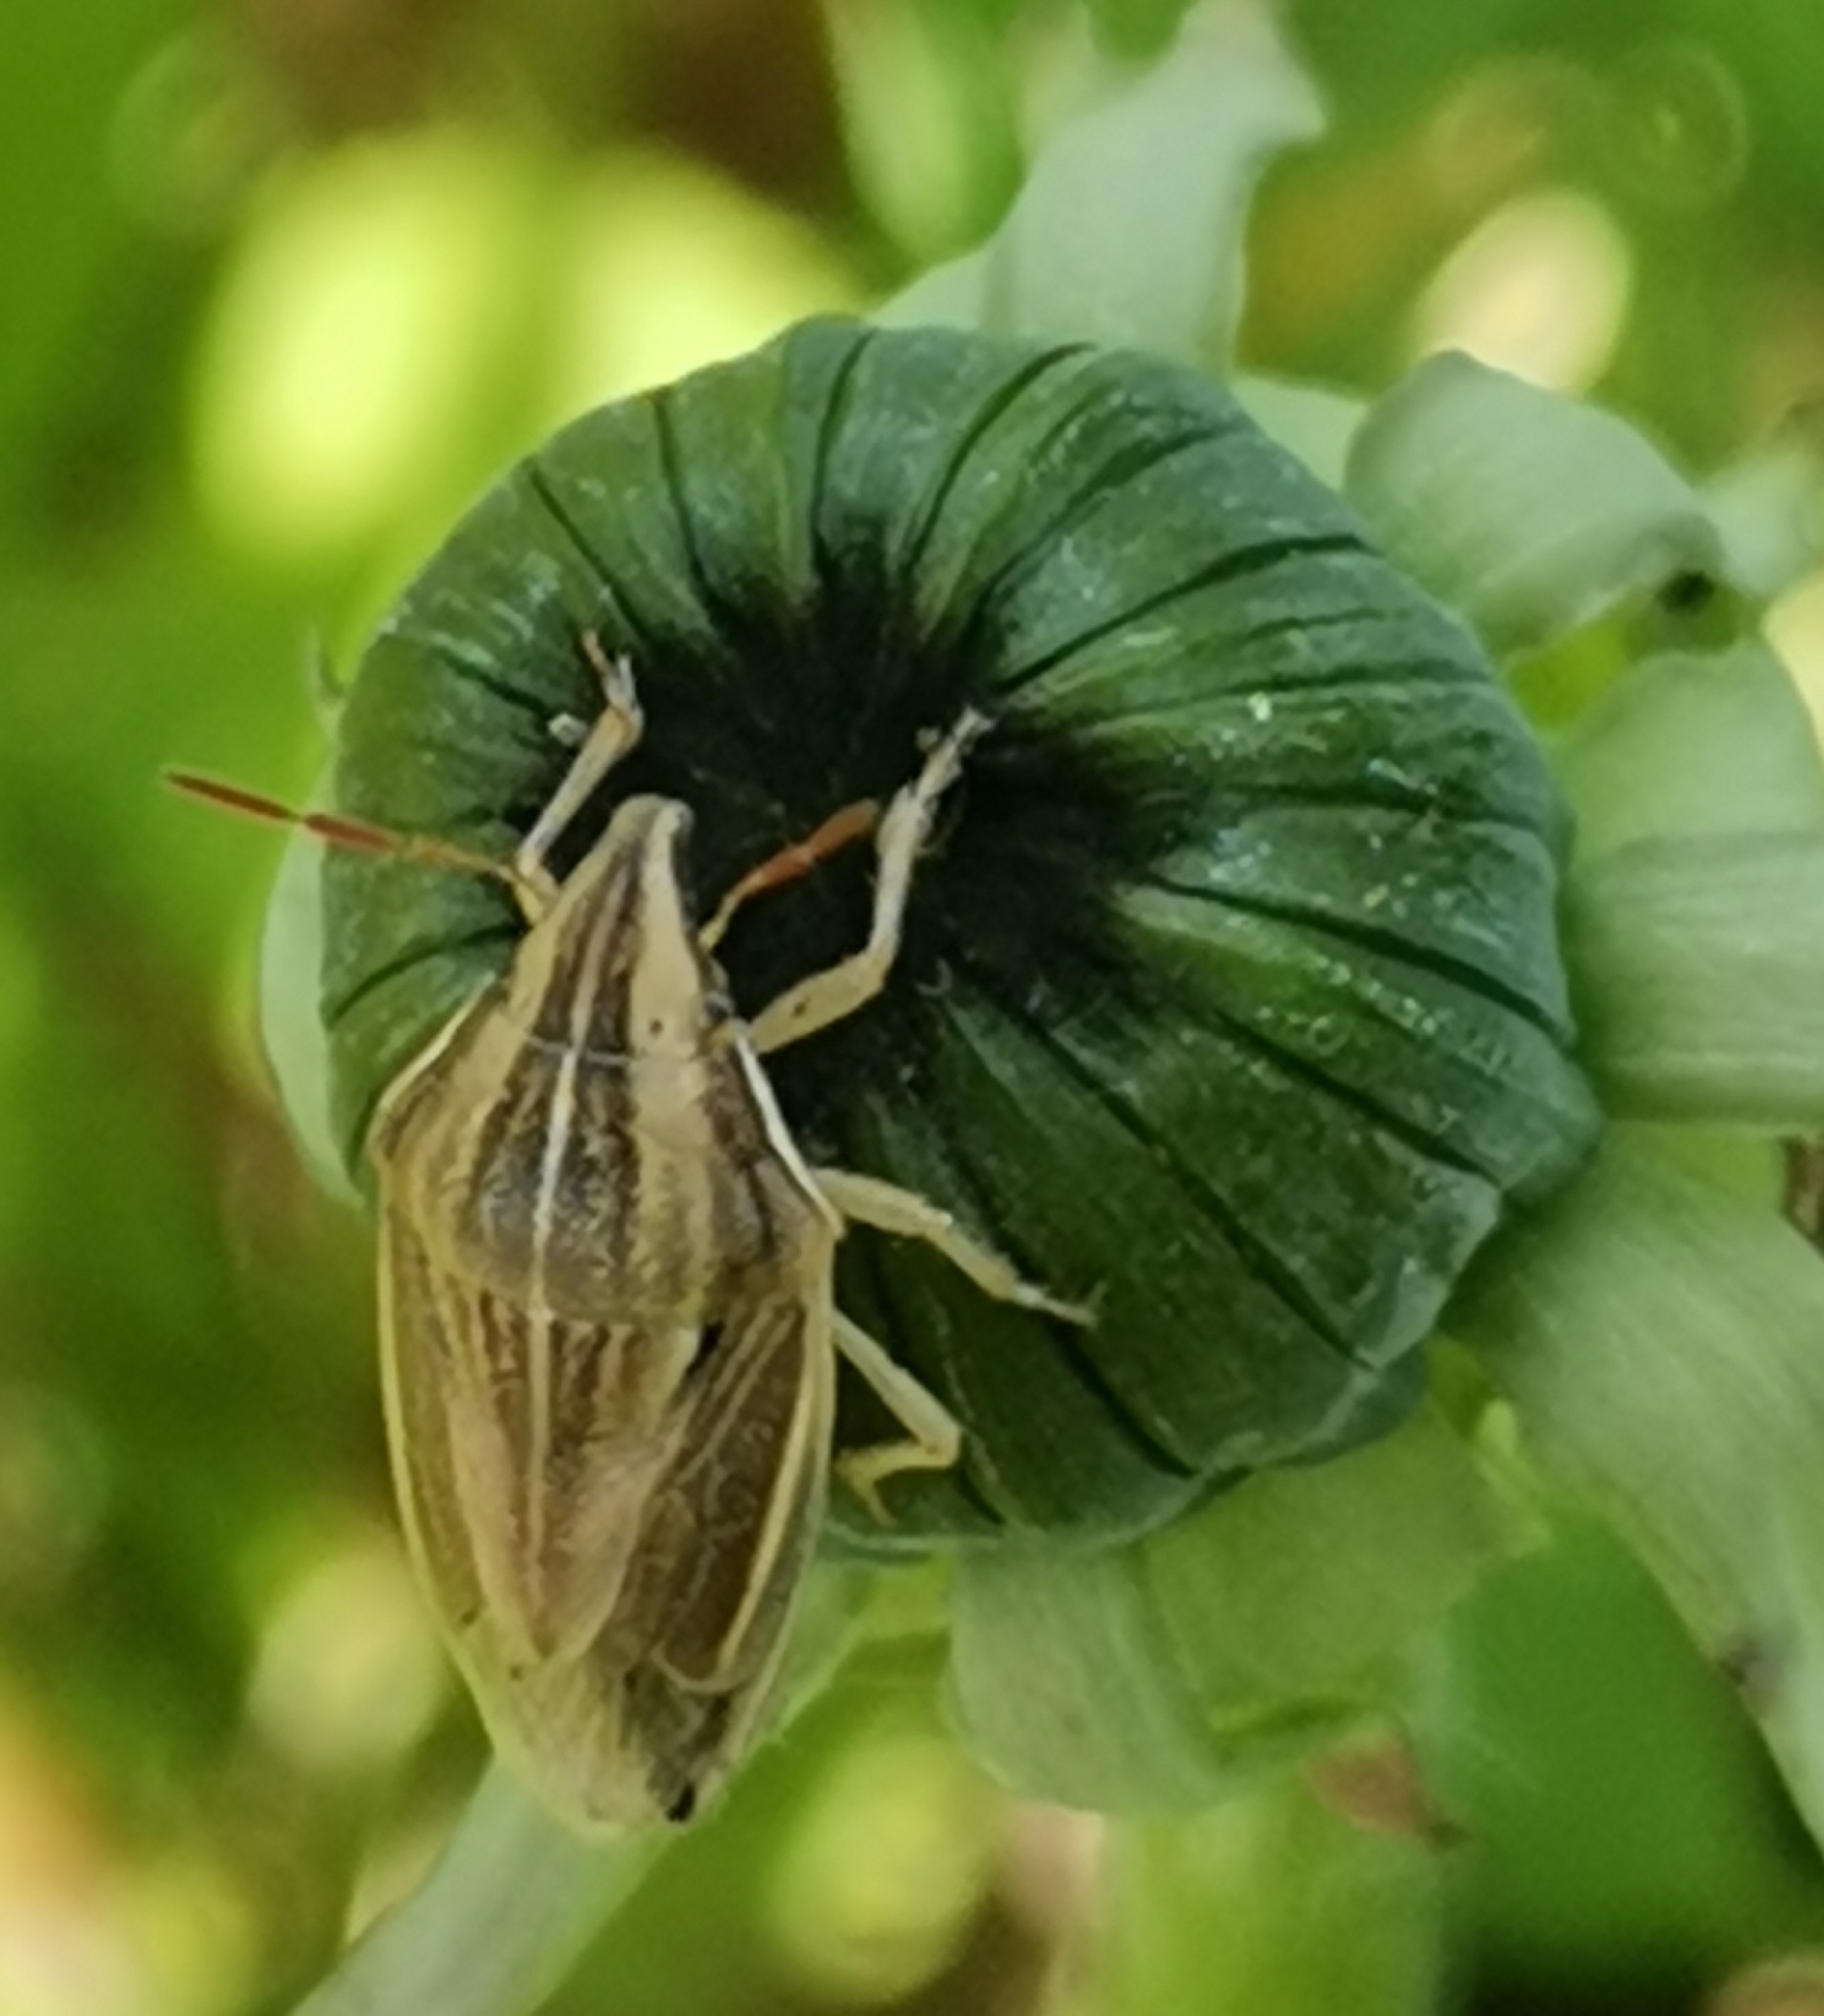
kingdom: Animalia
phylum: Arthropoda
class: Insecta
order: Hemiptera
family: Pentatomidae
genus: Aelia
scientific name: Aelia acuminata
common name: Bishop's mitre
